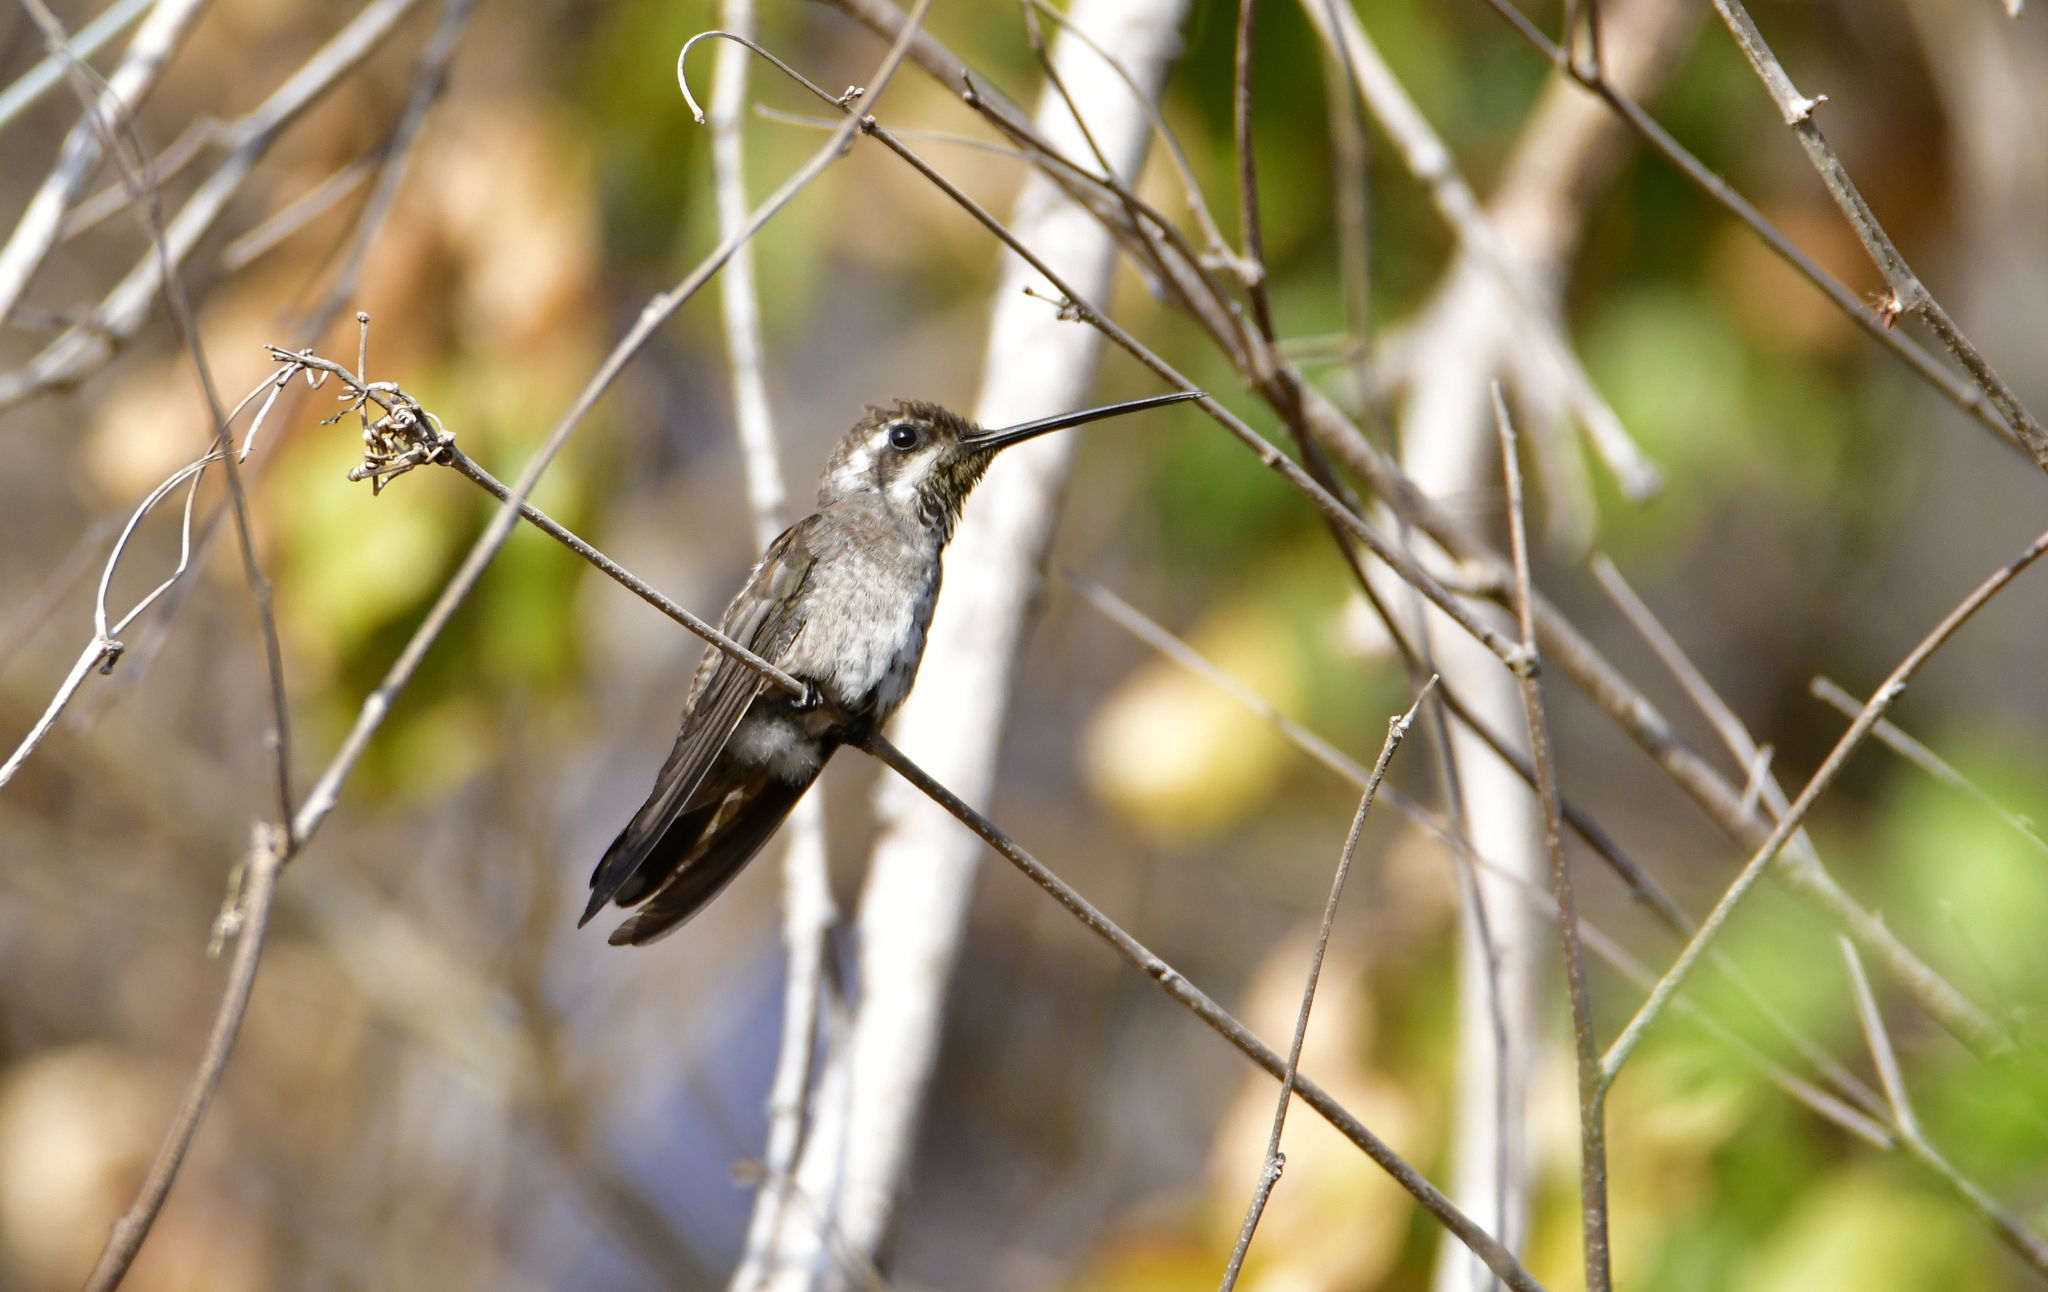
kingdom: Animalia
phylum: Chordata
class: Aves
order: Apodiformes
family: Trochilidae
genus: Heliomaster
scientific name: Heliomaster constantii
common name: Plain-capped starthroat
